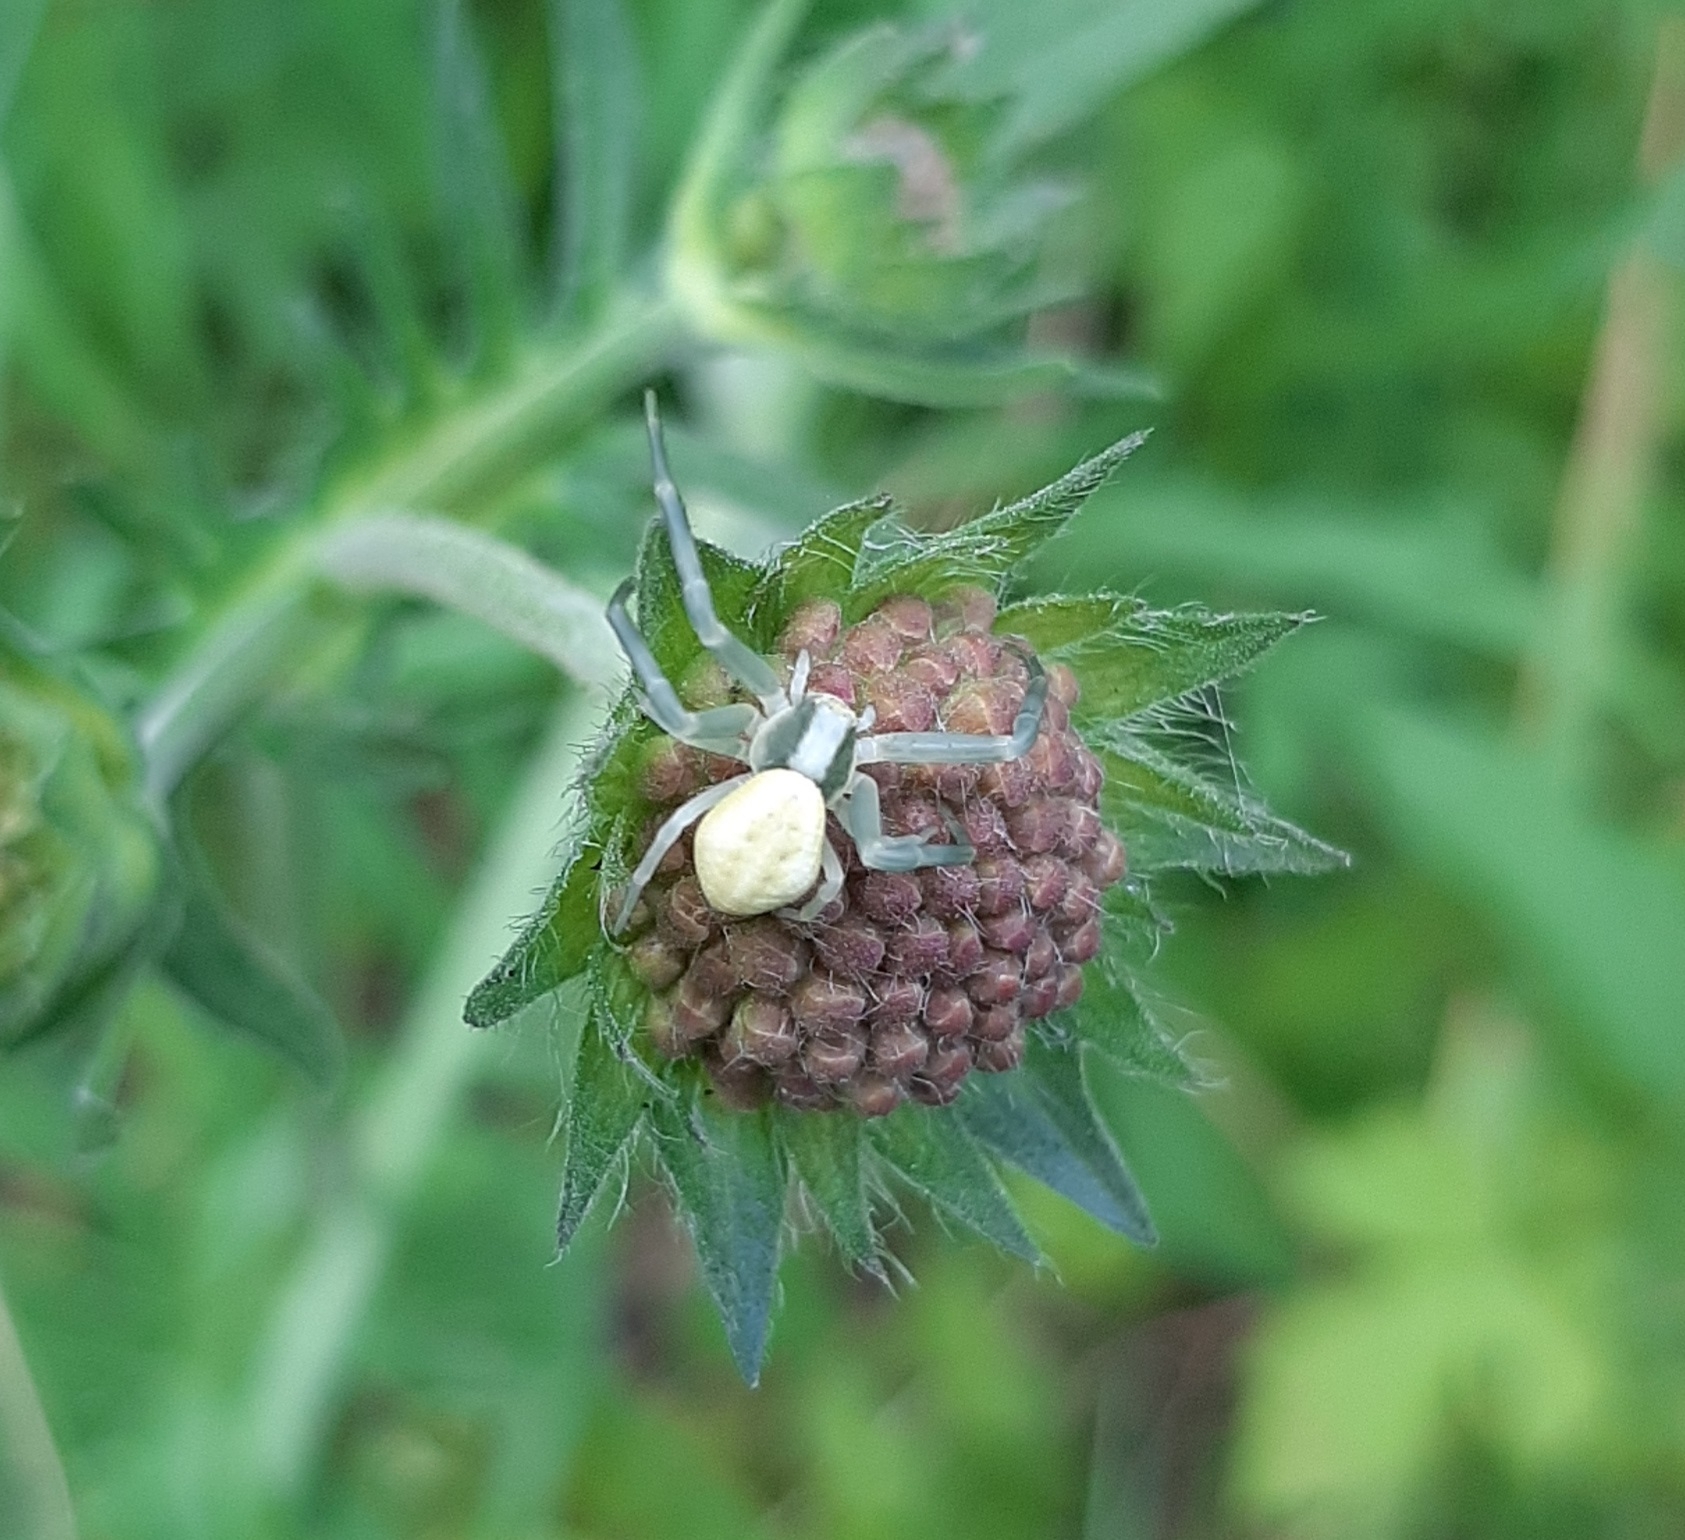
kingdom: Animalia
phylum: Arthropoda
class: Arachnida
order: Araneae
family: Thomisidae
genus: Misumena
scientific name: Misumena vatia
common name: Goldenrod crab spider
